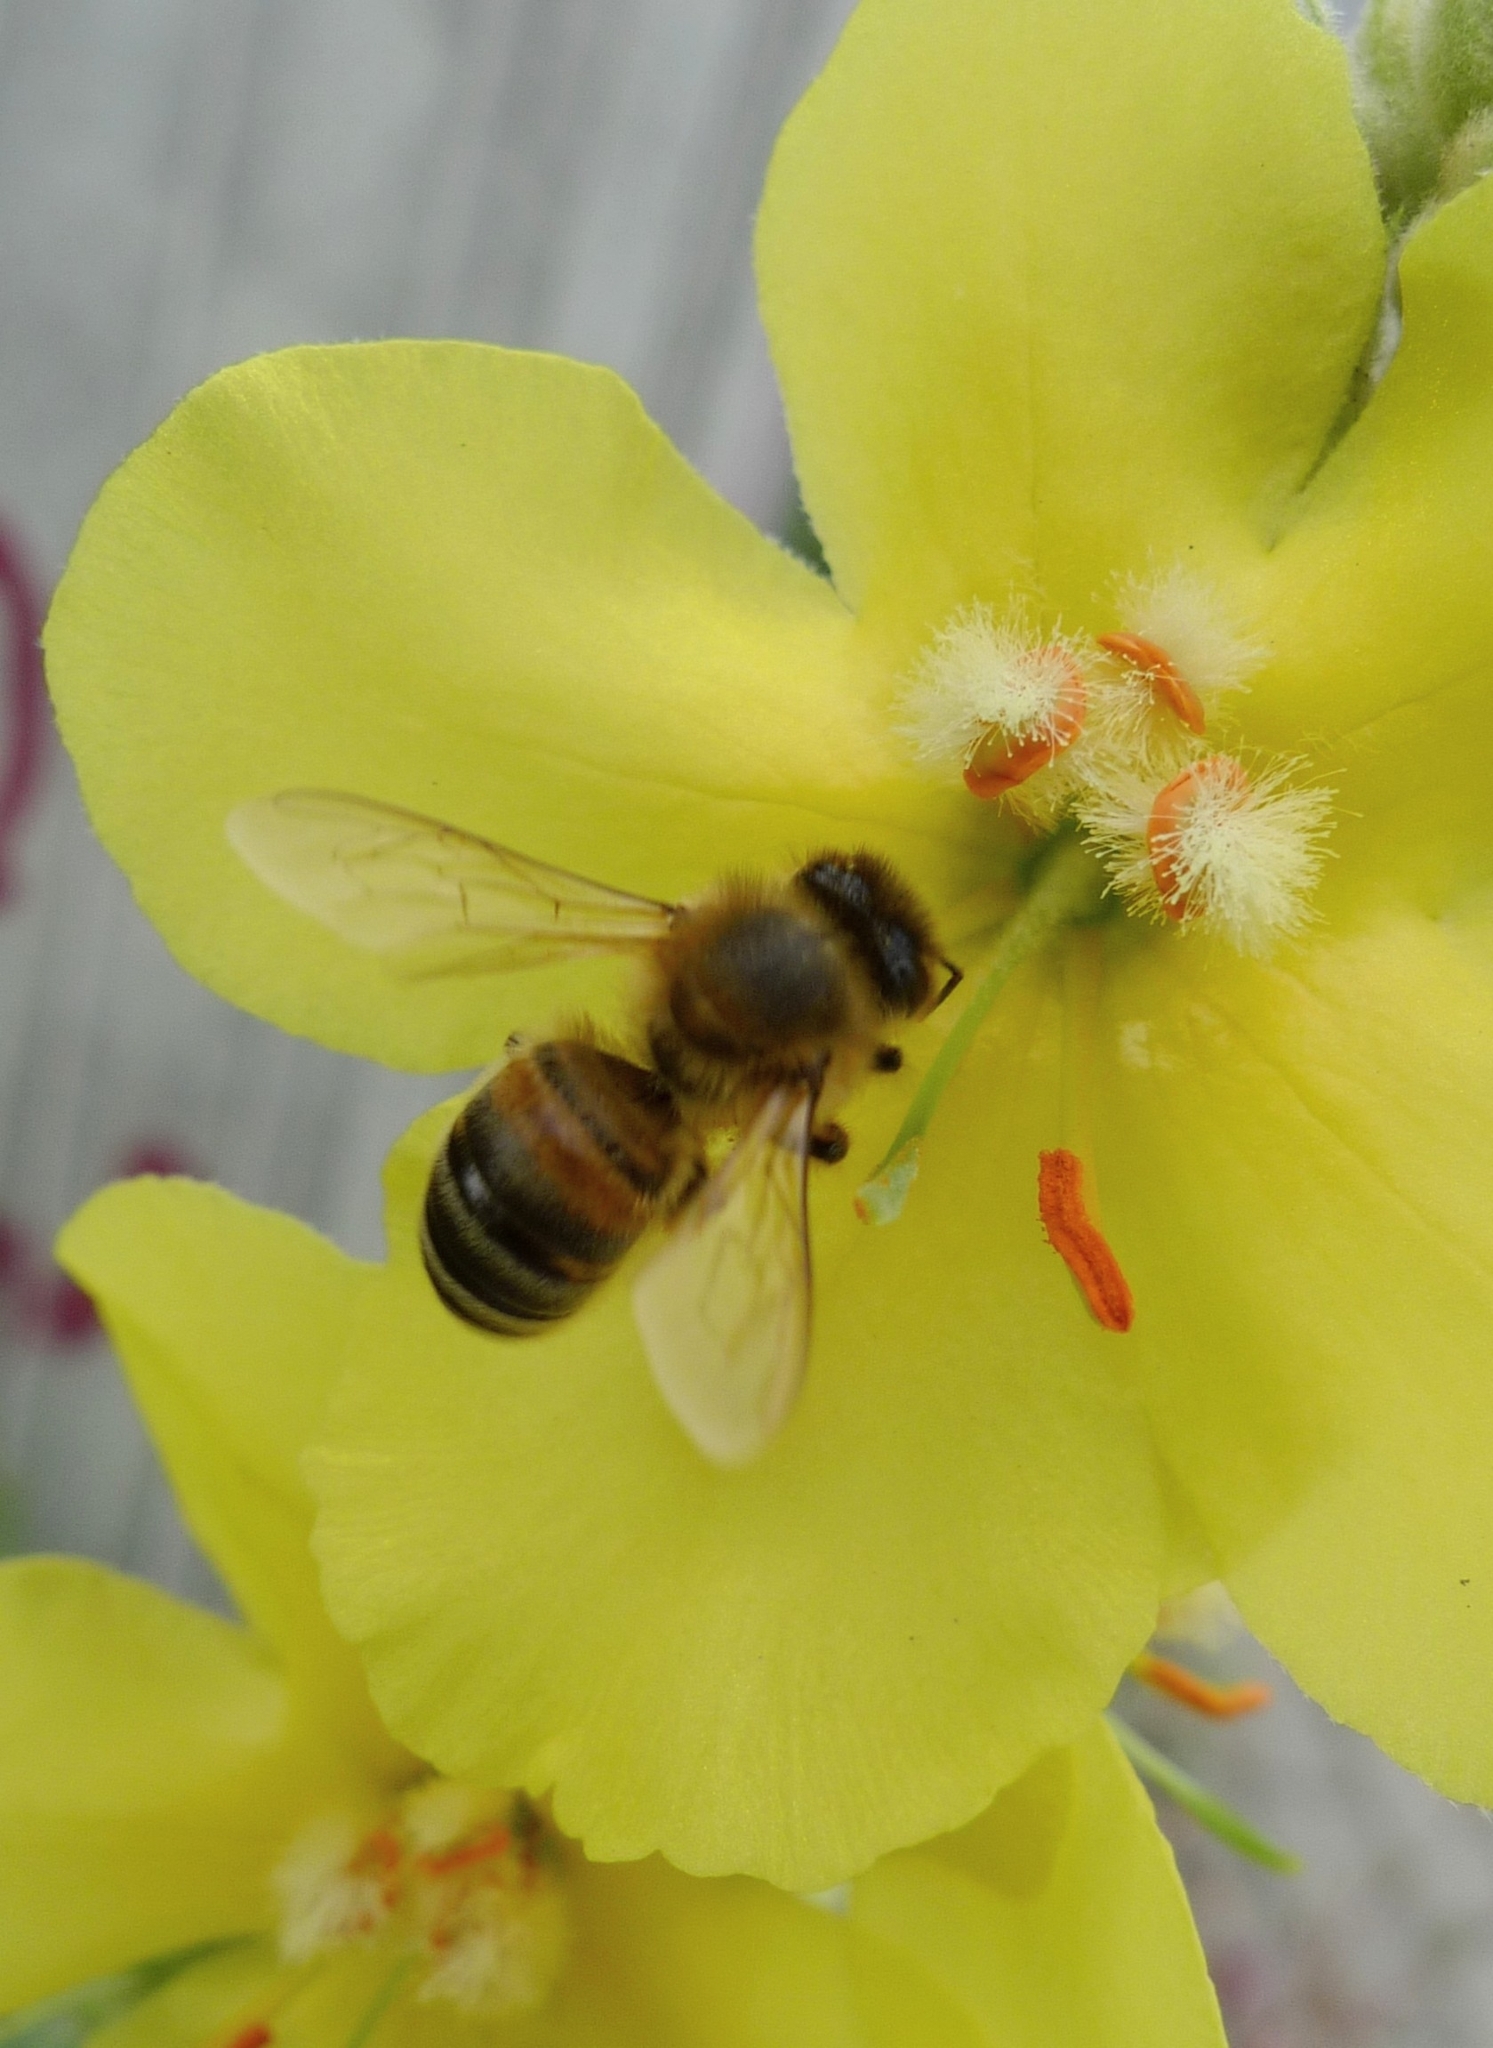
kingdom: Animalia
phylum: Arthropoda
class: Insecta
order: Hymenoptera
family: Apidae
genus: Apis
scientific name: Apis mellifera
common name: Honey bee
